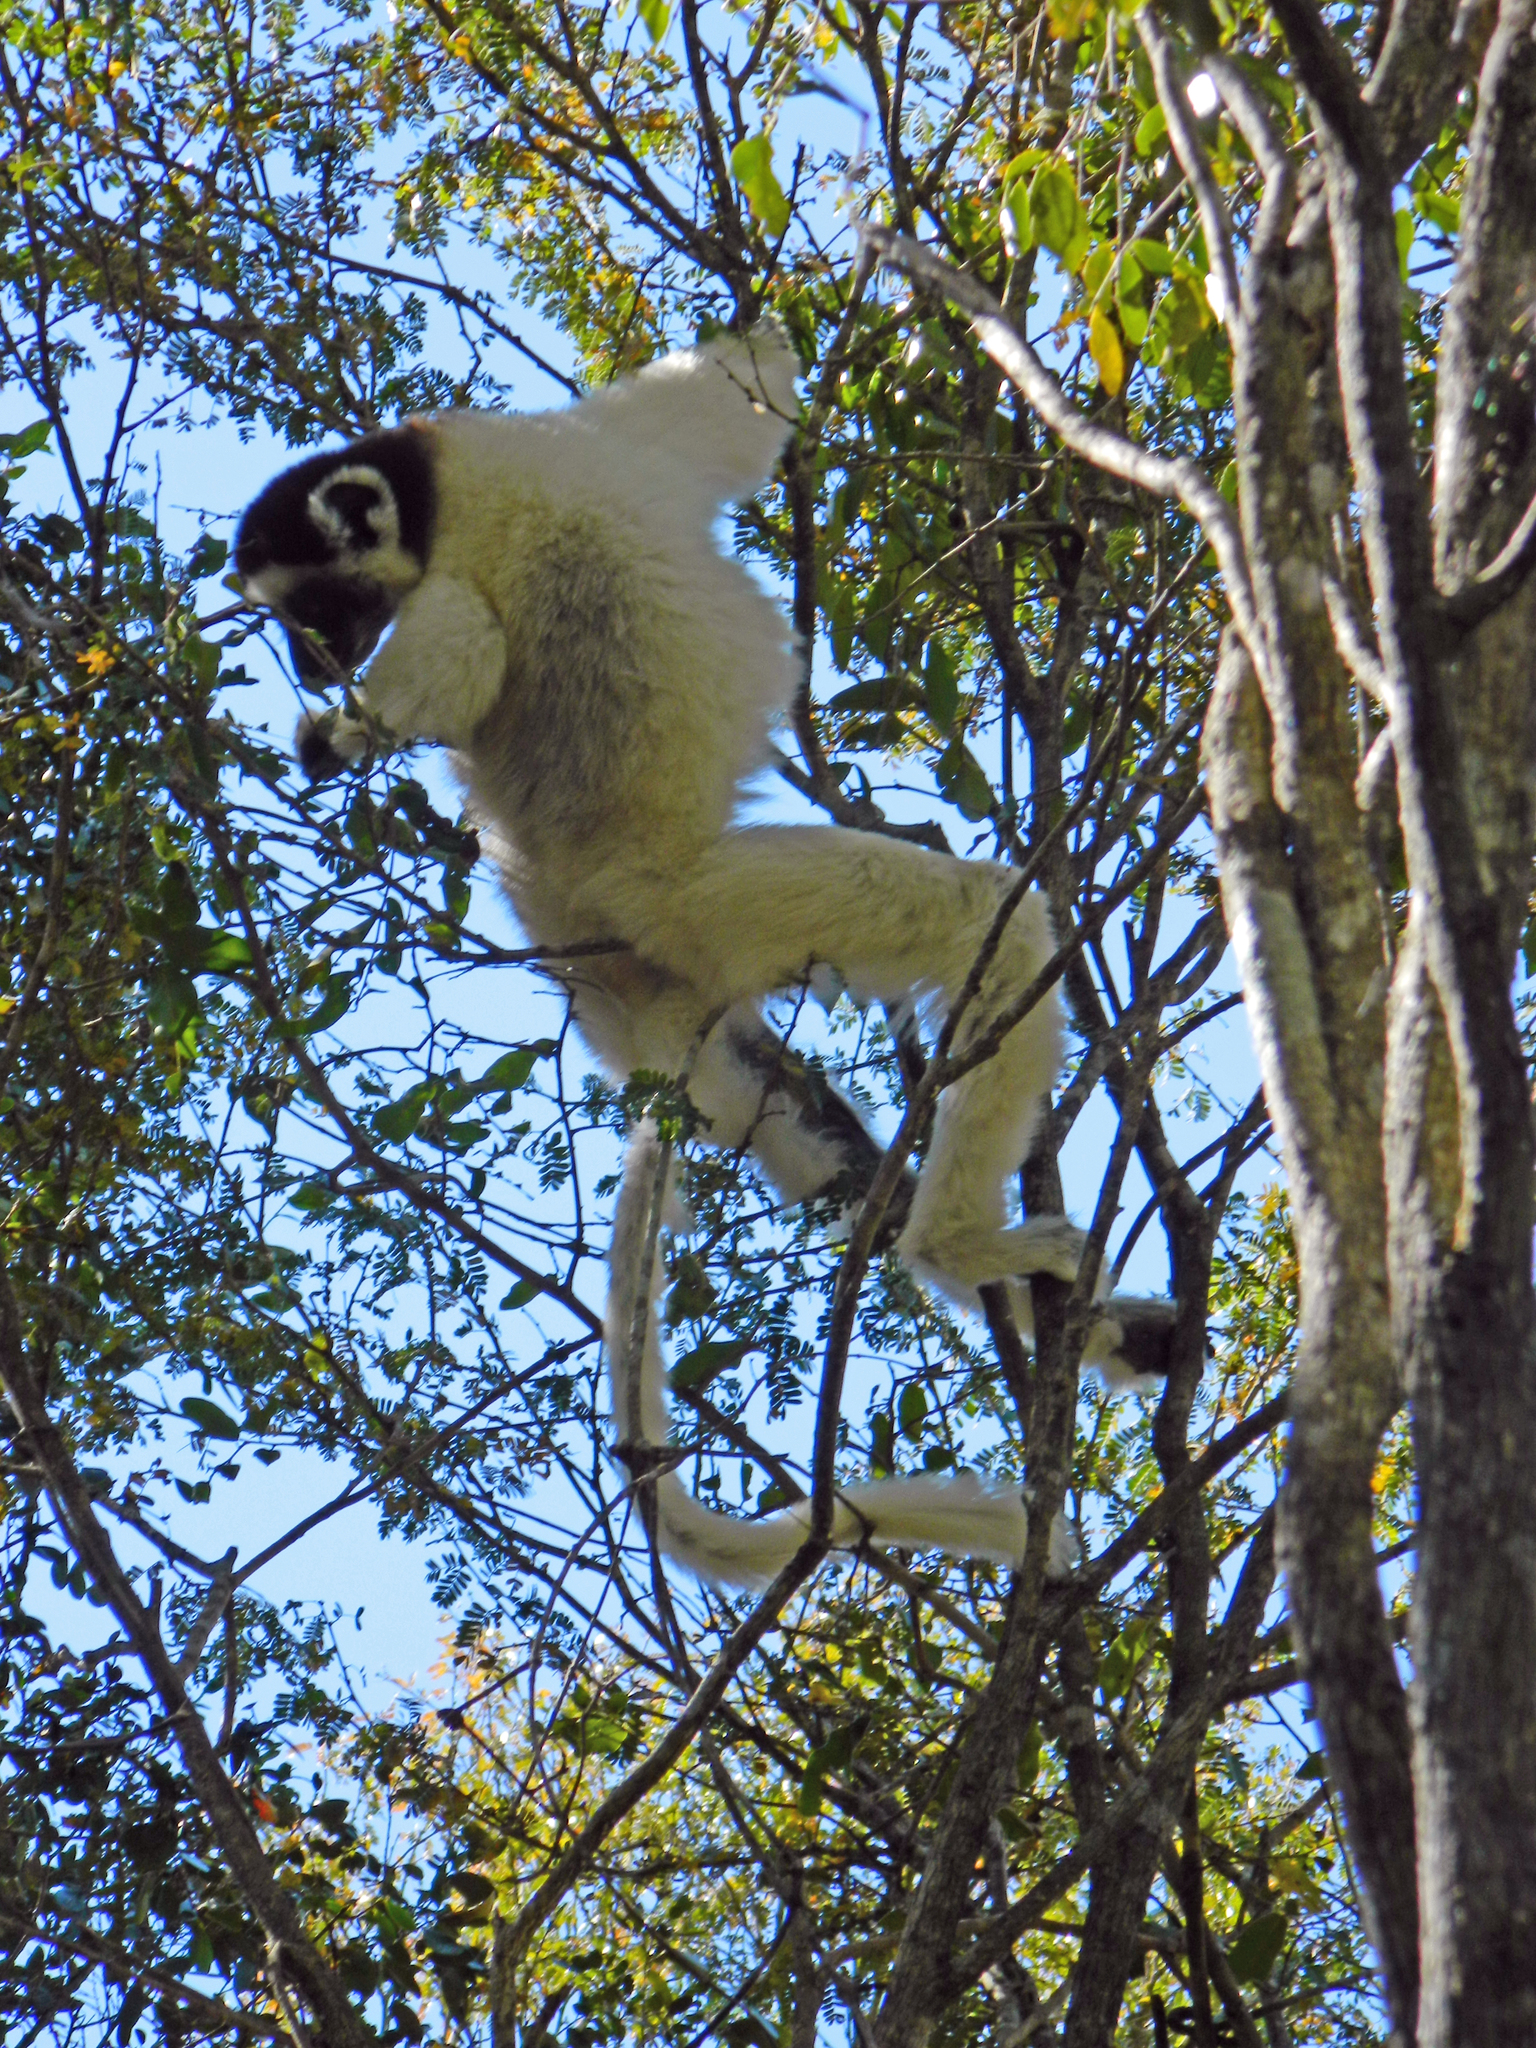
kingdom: Animalia
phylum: Chordata
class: Mammalia
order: Primates
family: Indriidae
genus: Propithecus
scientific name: Propithecus verreauxi
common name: Verreaux's sifaka
